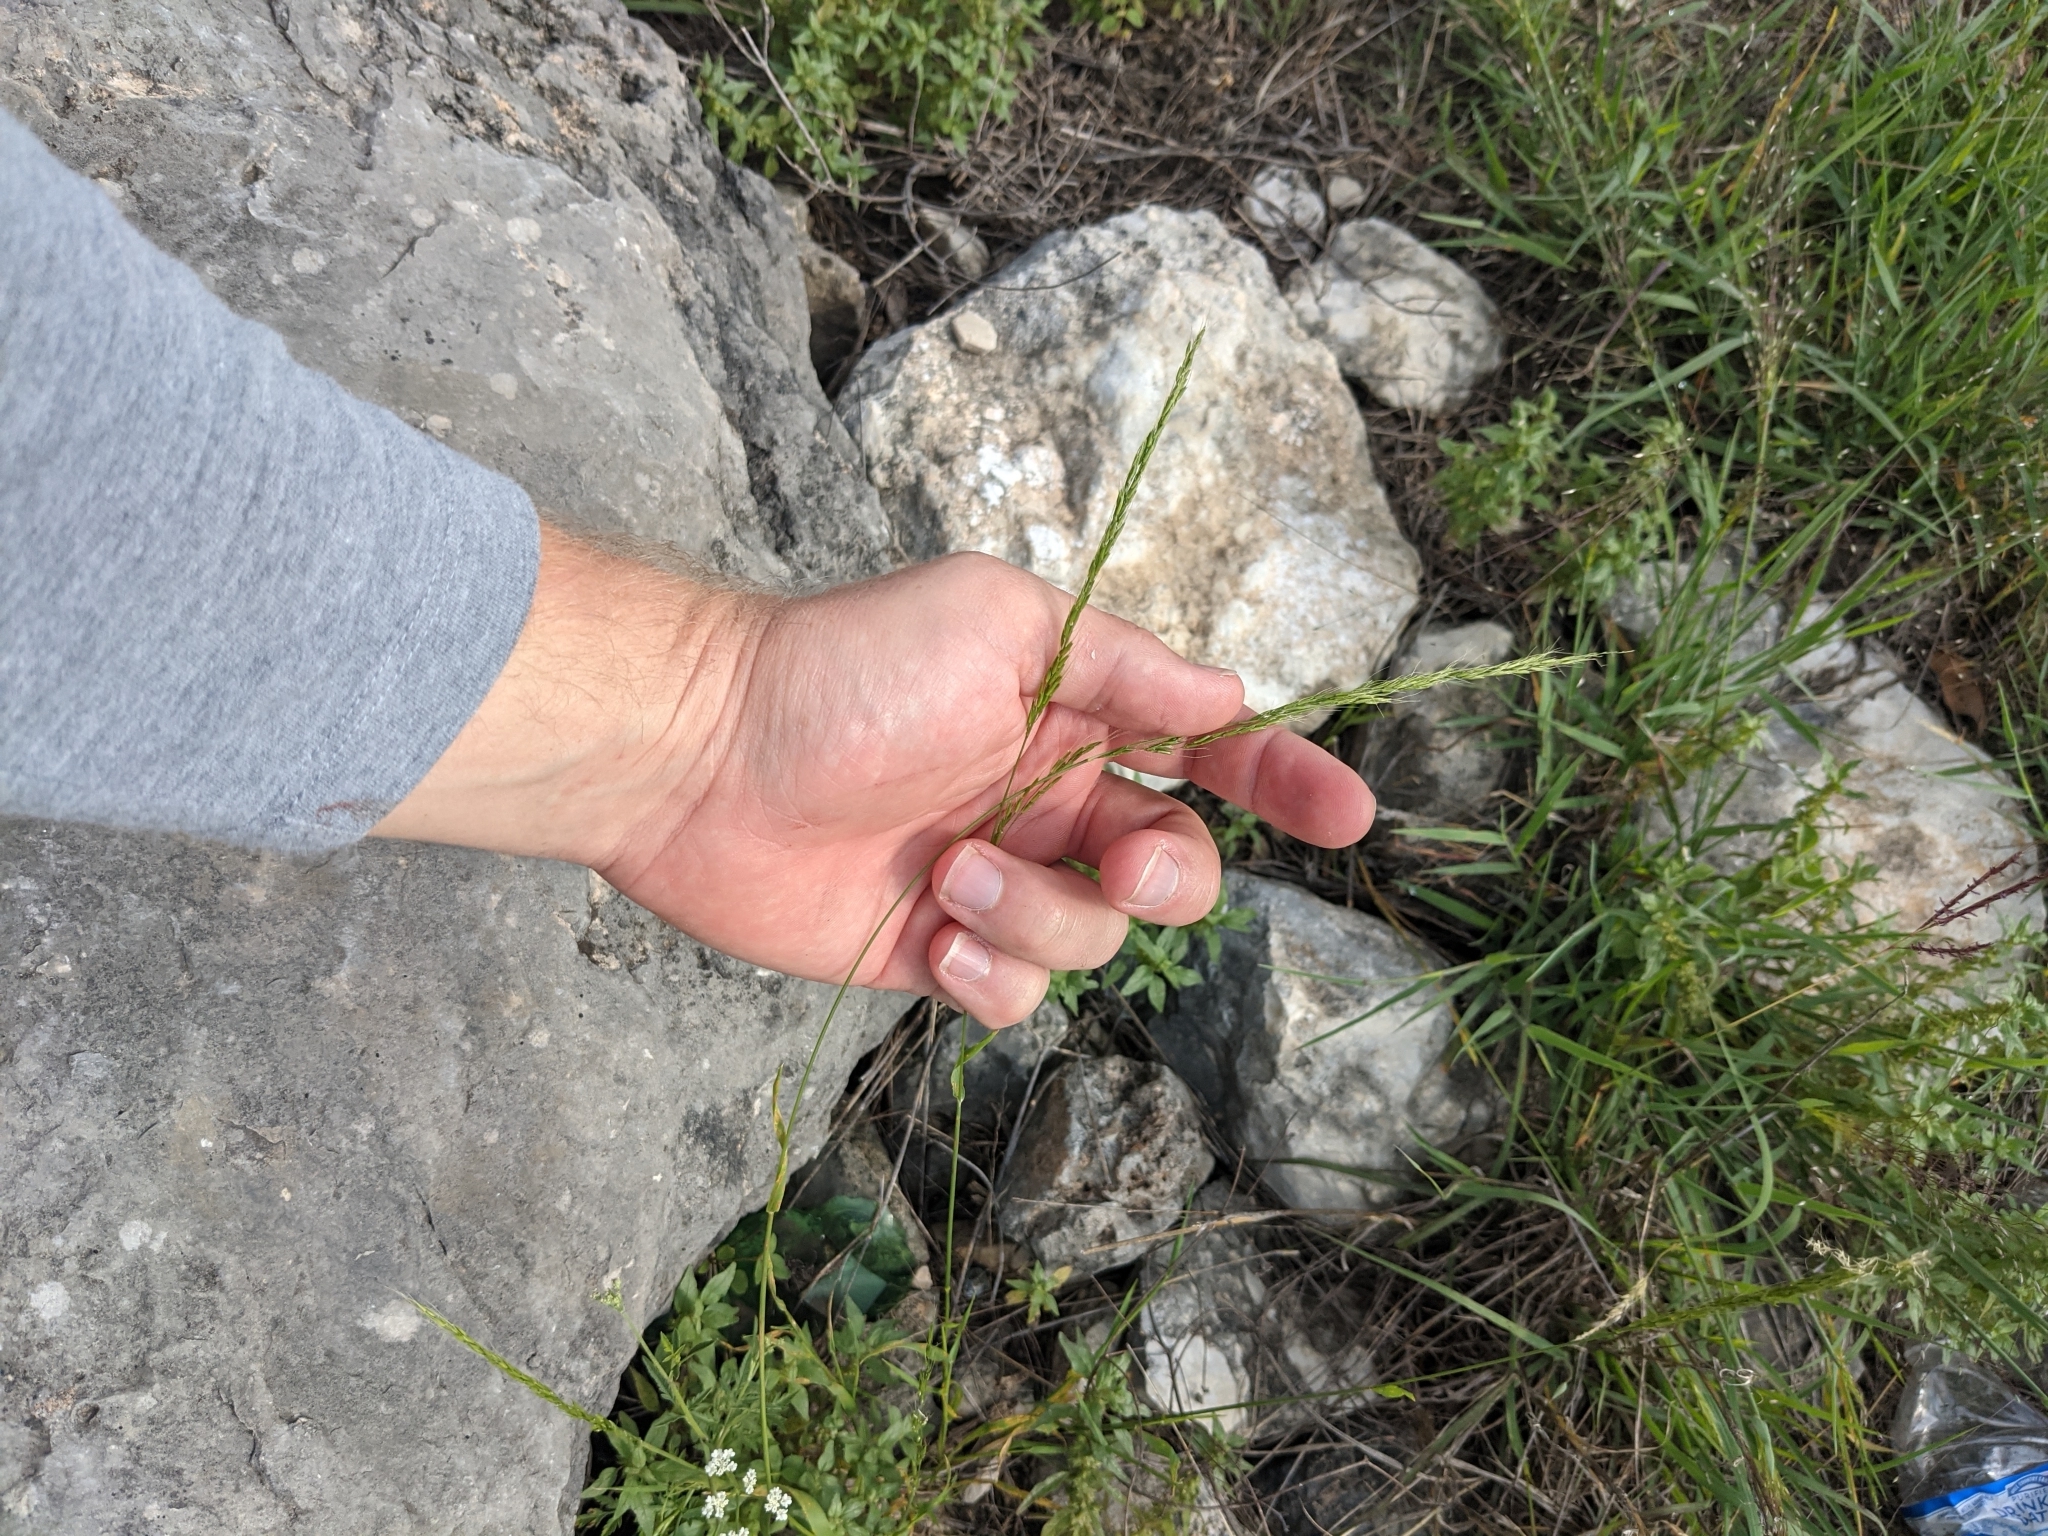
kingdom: Plantae
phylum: Tracheophyta
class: Liliopsida
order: Poales
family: Poaceae
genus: Limnodea
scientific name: Limnodea arkansana
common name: Ozark-grass
